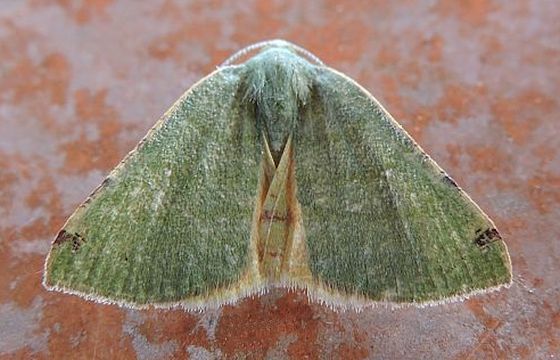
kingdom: Animalia
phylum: Arthropoda
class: Insecta
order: Lepidoptera
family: Geometridae
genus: Chloraspilates
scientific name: Chloraspilates bicoloraria
